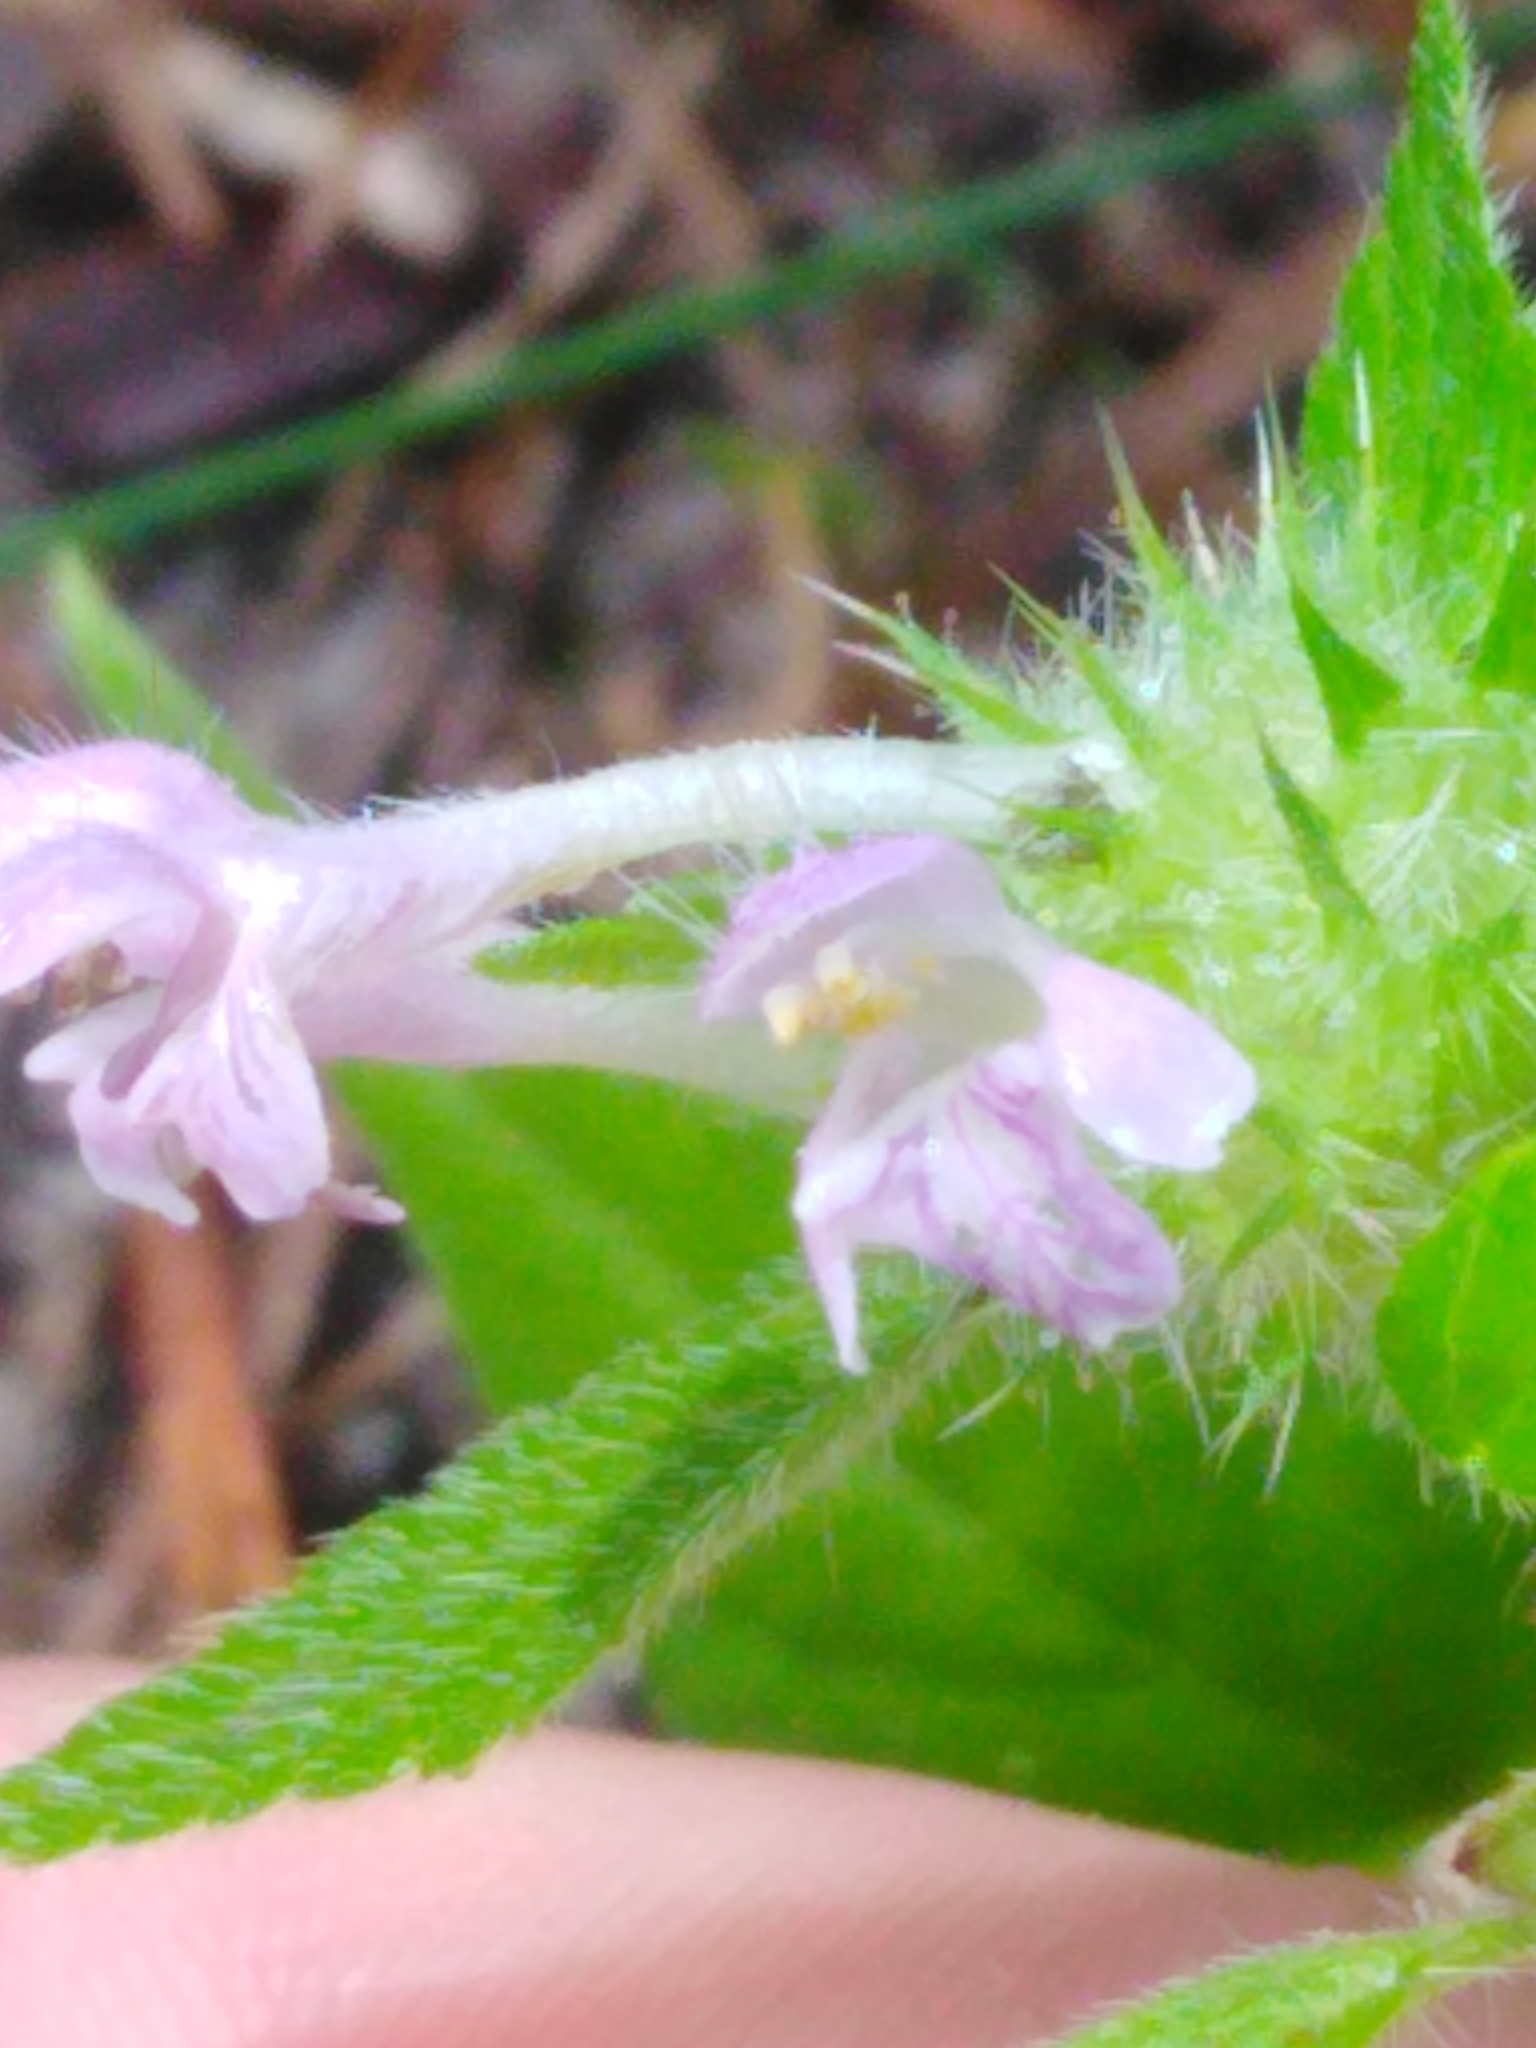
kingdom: Plantae
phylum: Tracheophyta
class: Magnoliopsida
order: Lamiales
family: Lamiaceae
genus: Galeopsis
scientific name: Galeopsis bifida
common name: Bifid hemp-nettle
